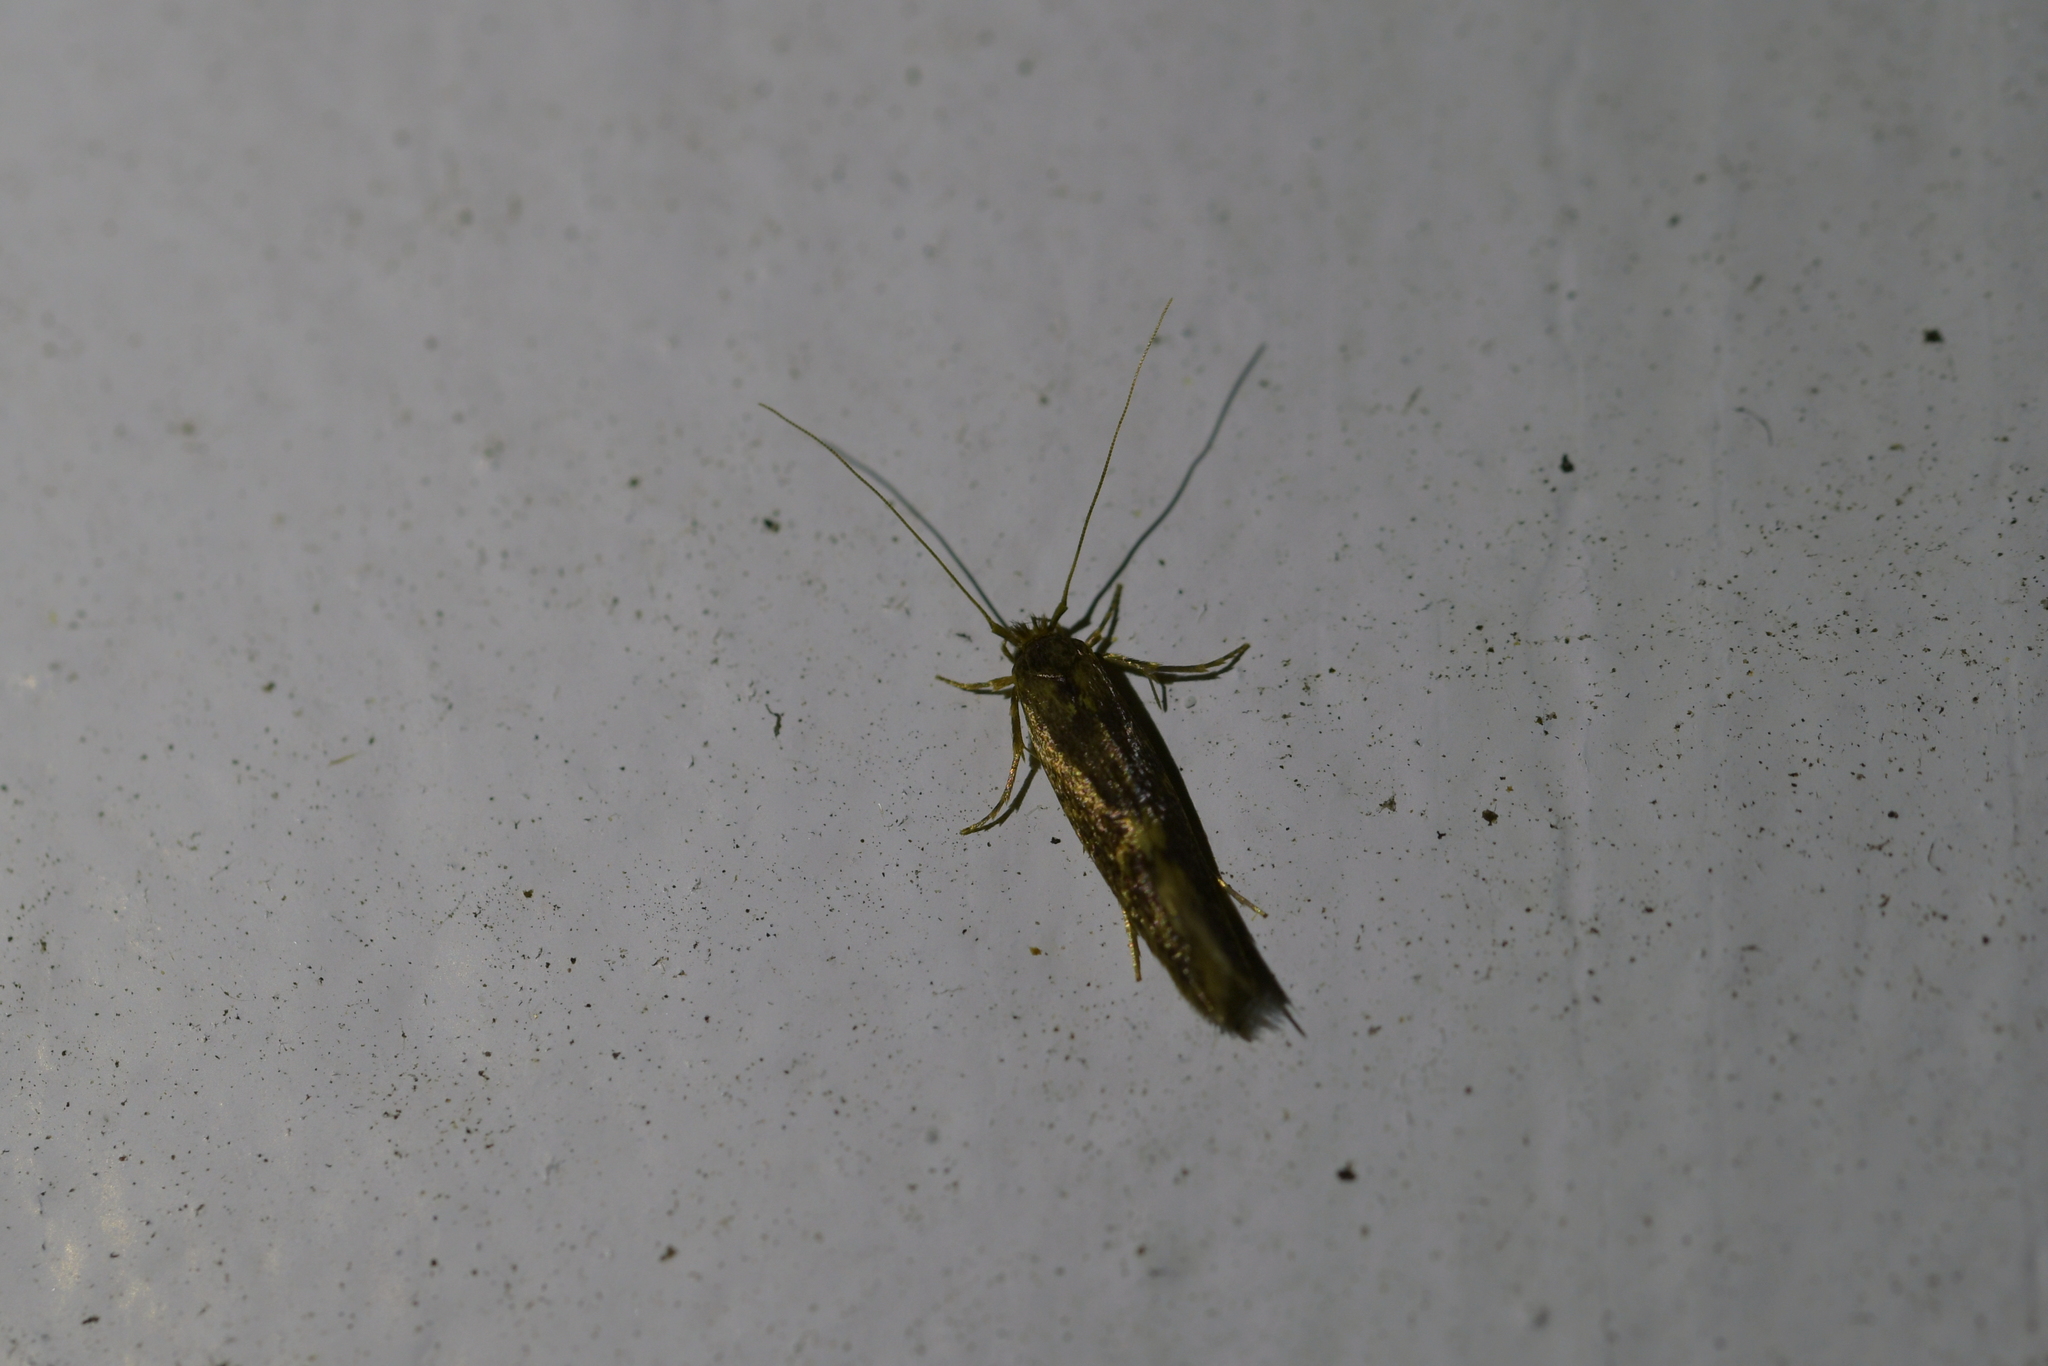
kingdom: Animalia
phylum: Arthropoda
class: Insecta
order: Lepidoptera
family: Tineidae
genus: Opogona
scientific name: Opogona omoscopa
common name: Moth
